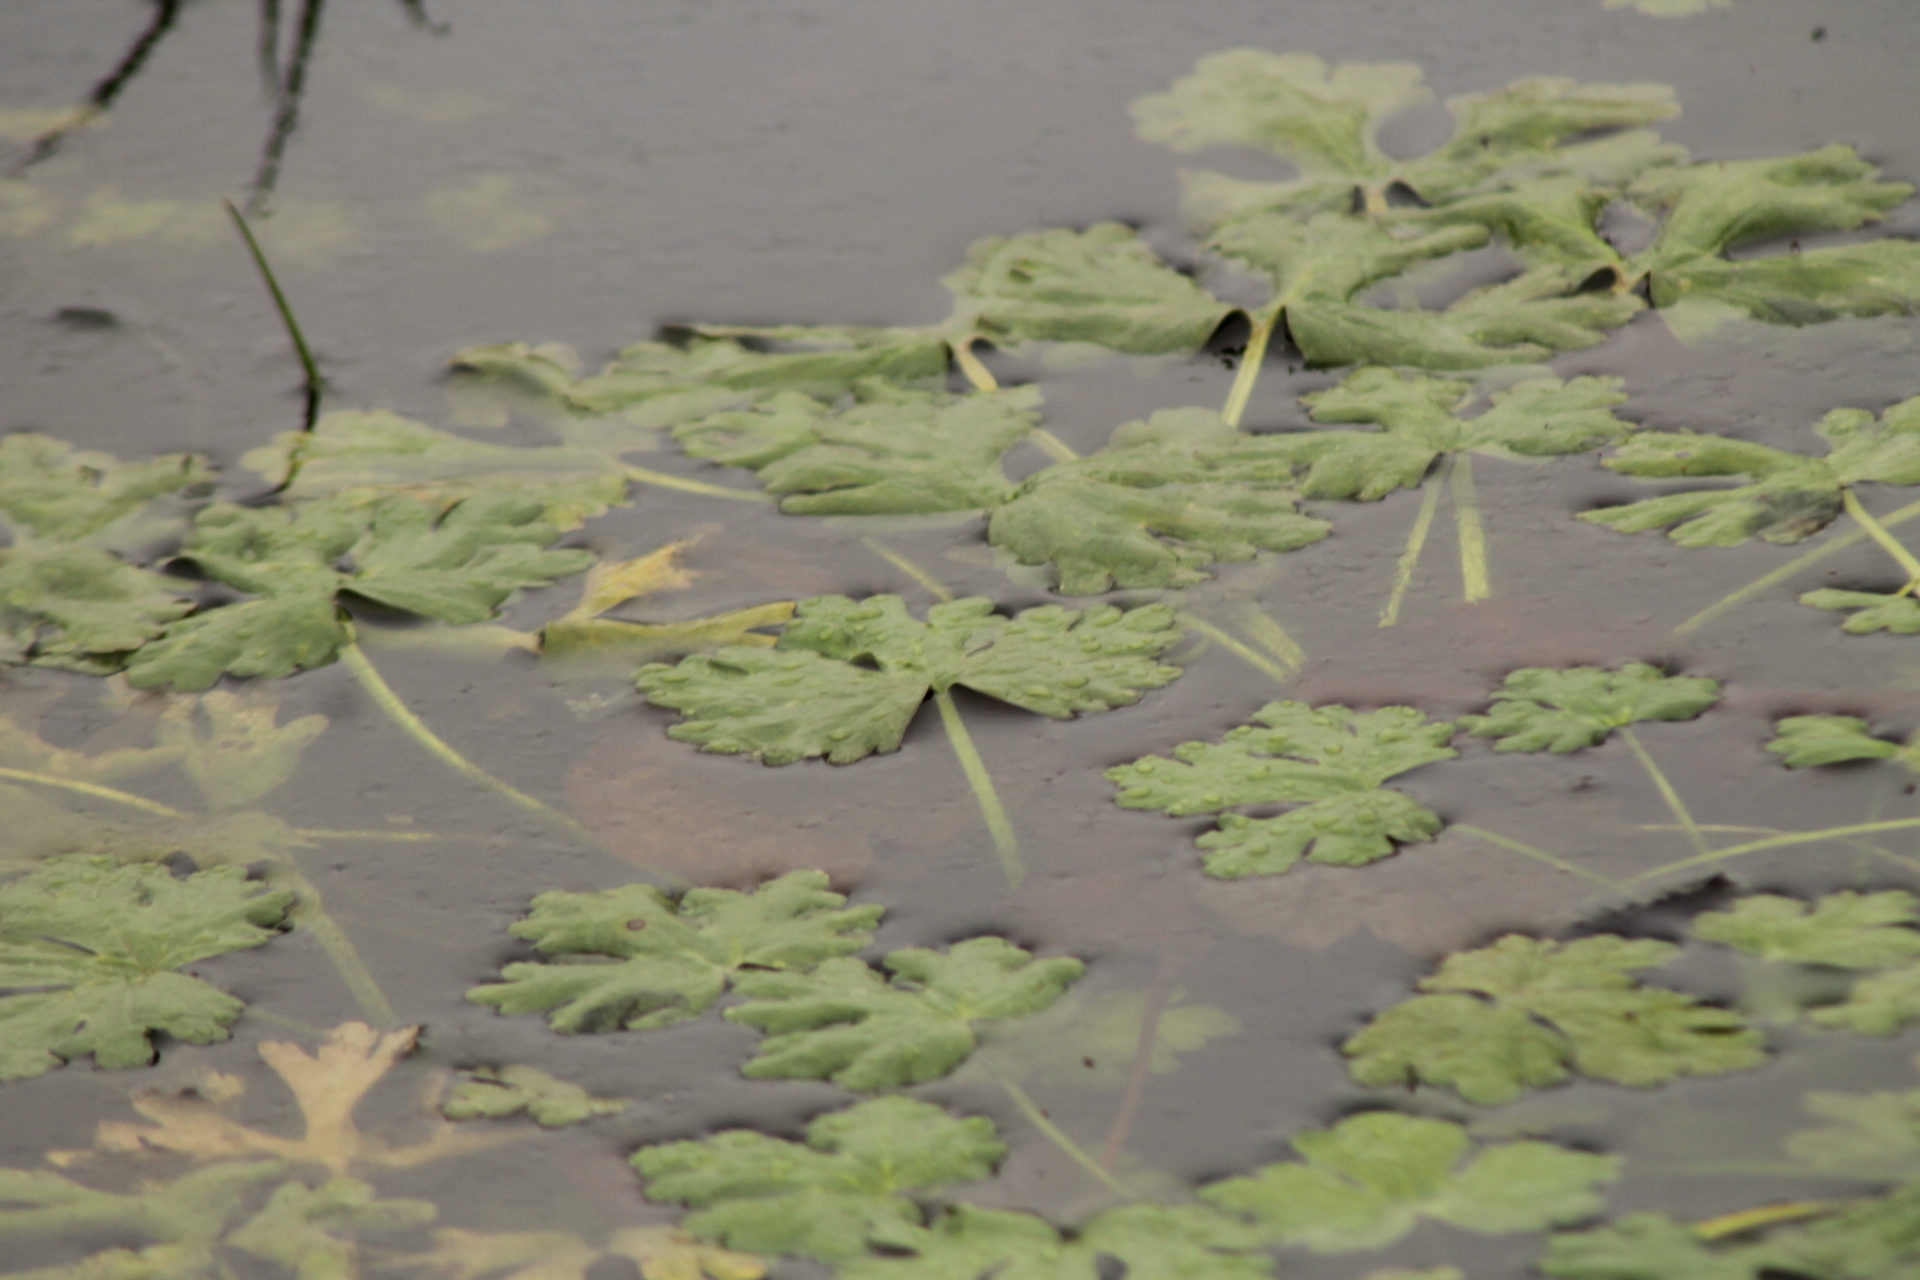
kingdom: Plantae
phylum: Tracheophyta
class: Magnoliopsida
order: Ranunculales
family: Ranunculaceae
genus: Ranunculus
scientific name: Ranunculus sceleratus
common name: Celery-leaved buttercup
